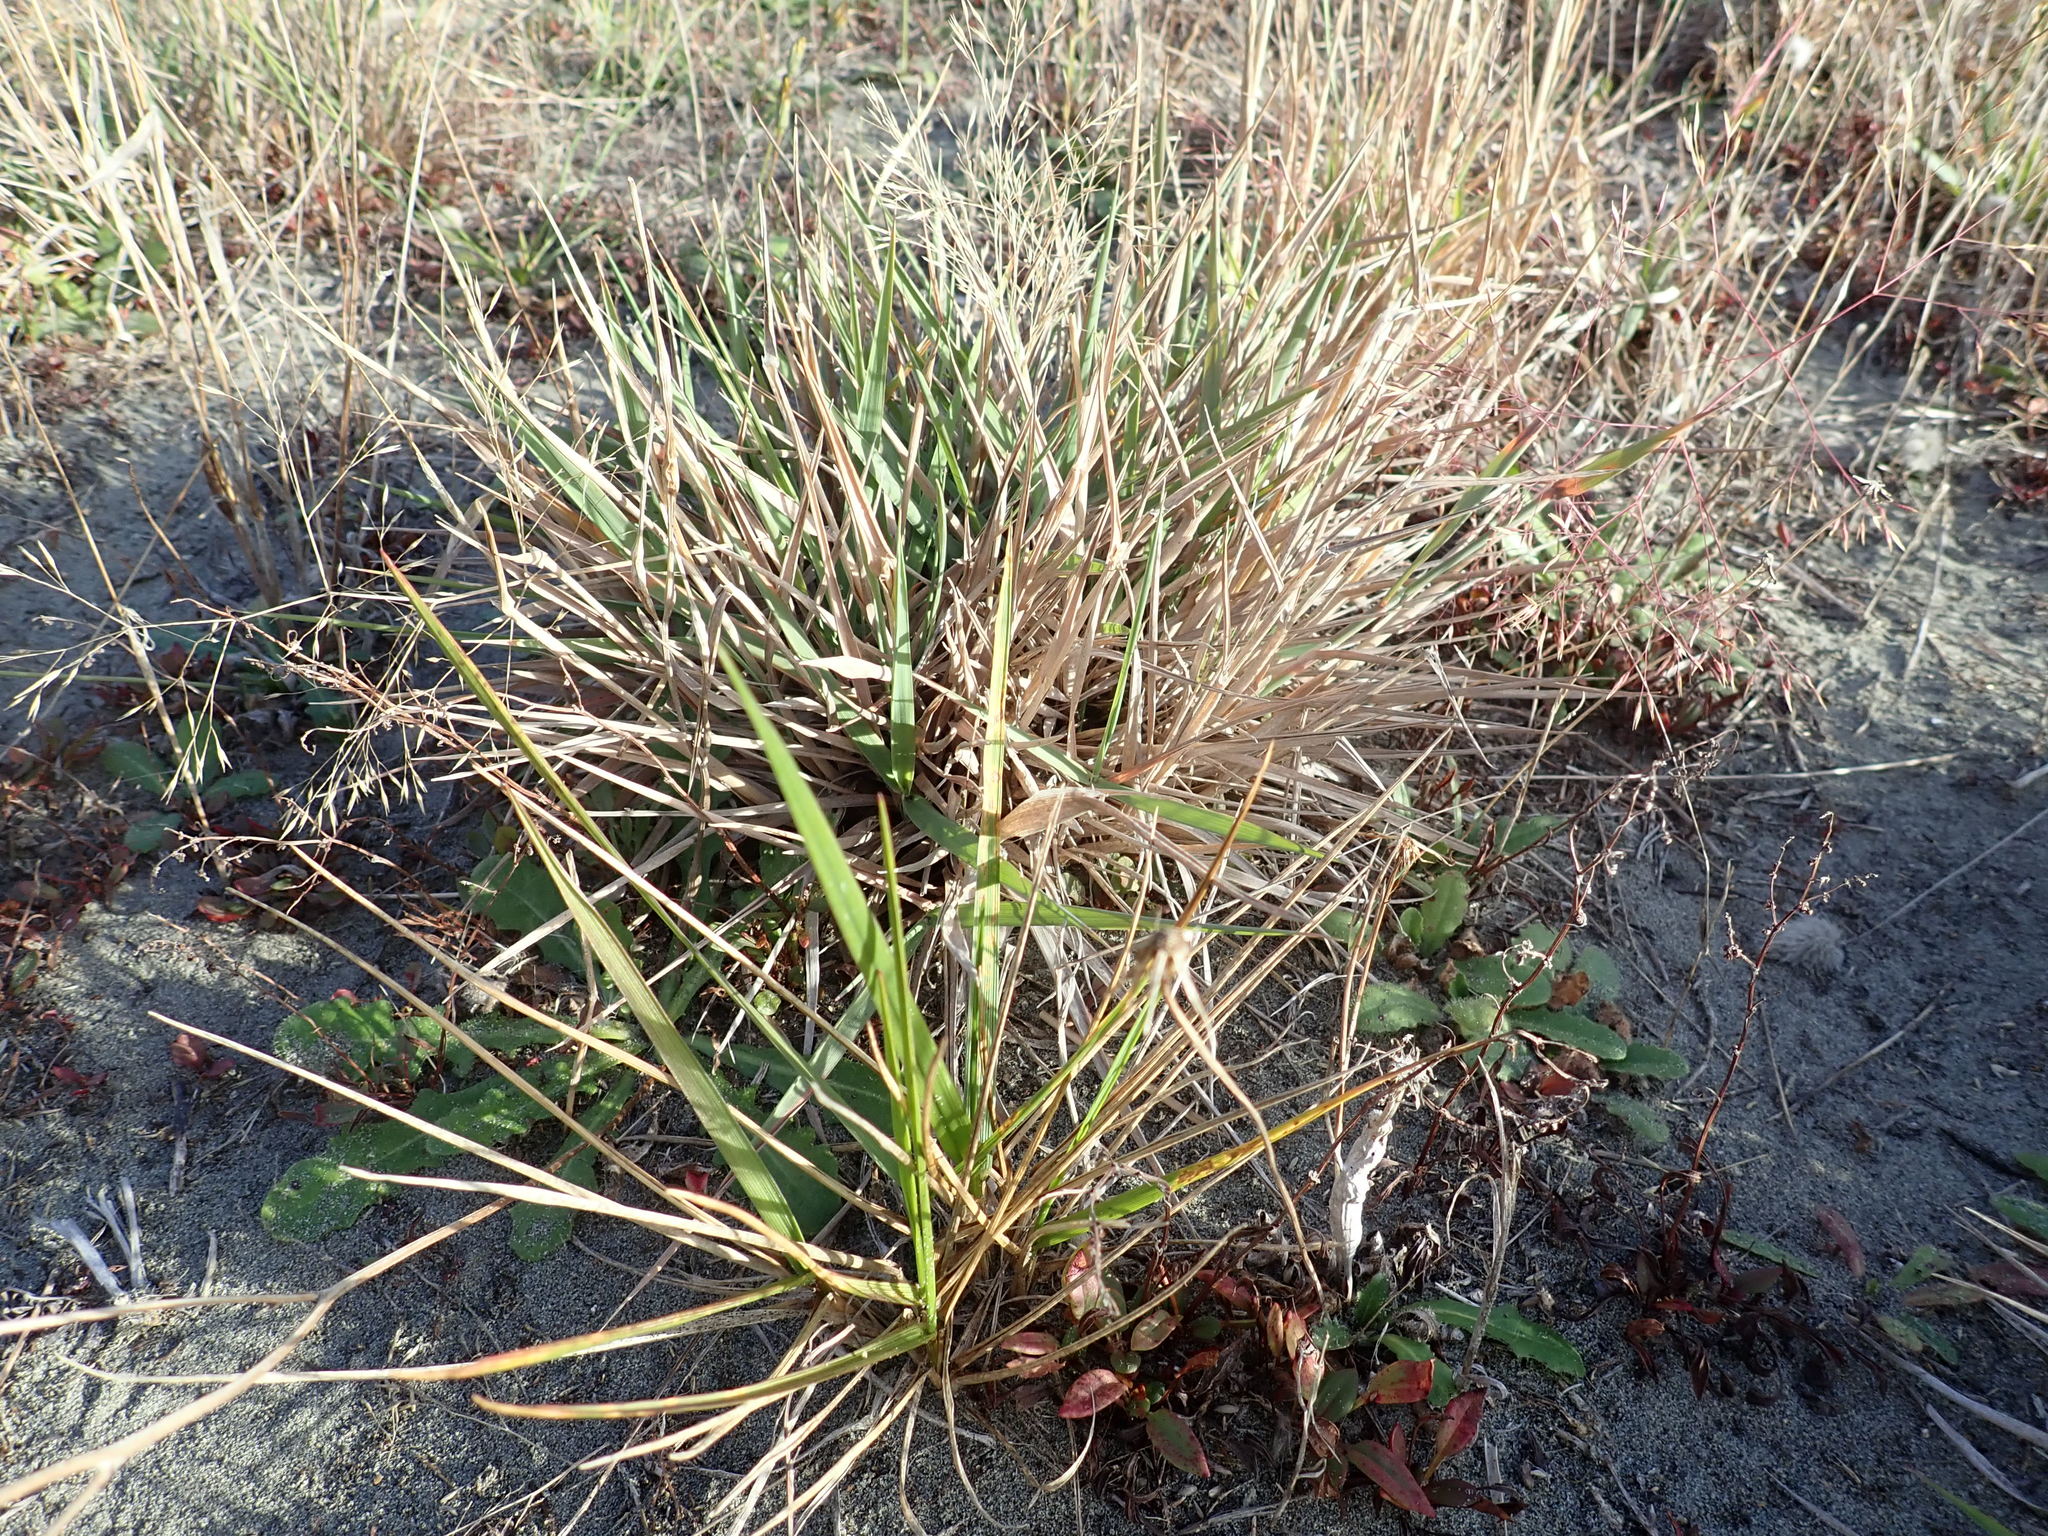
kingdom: Plantae
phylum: Tracheophyta
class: Liliopsida
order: Poales
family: Poaceae
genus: Lachnagrostis
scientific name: Lachnagrostis billardierei
